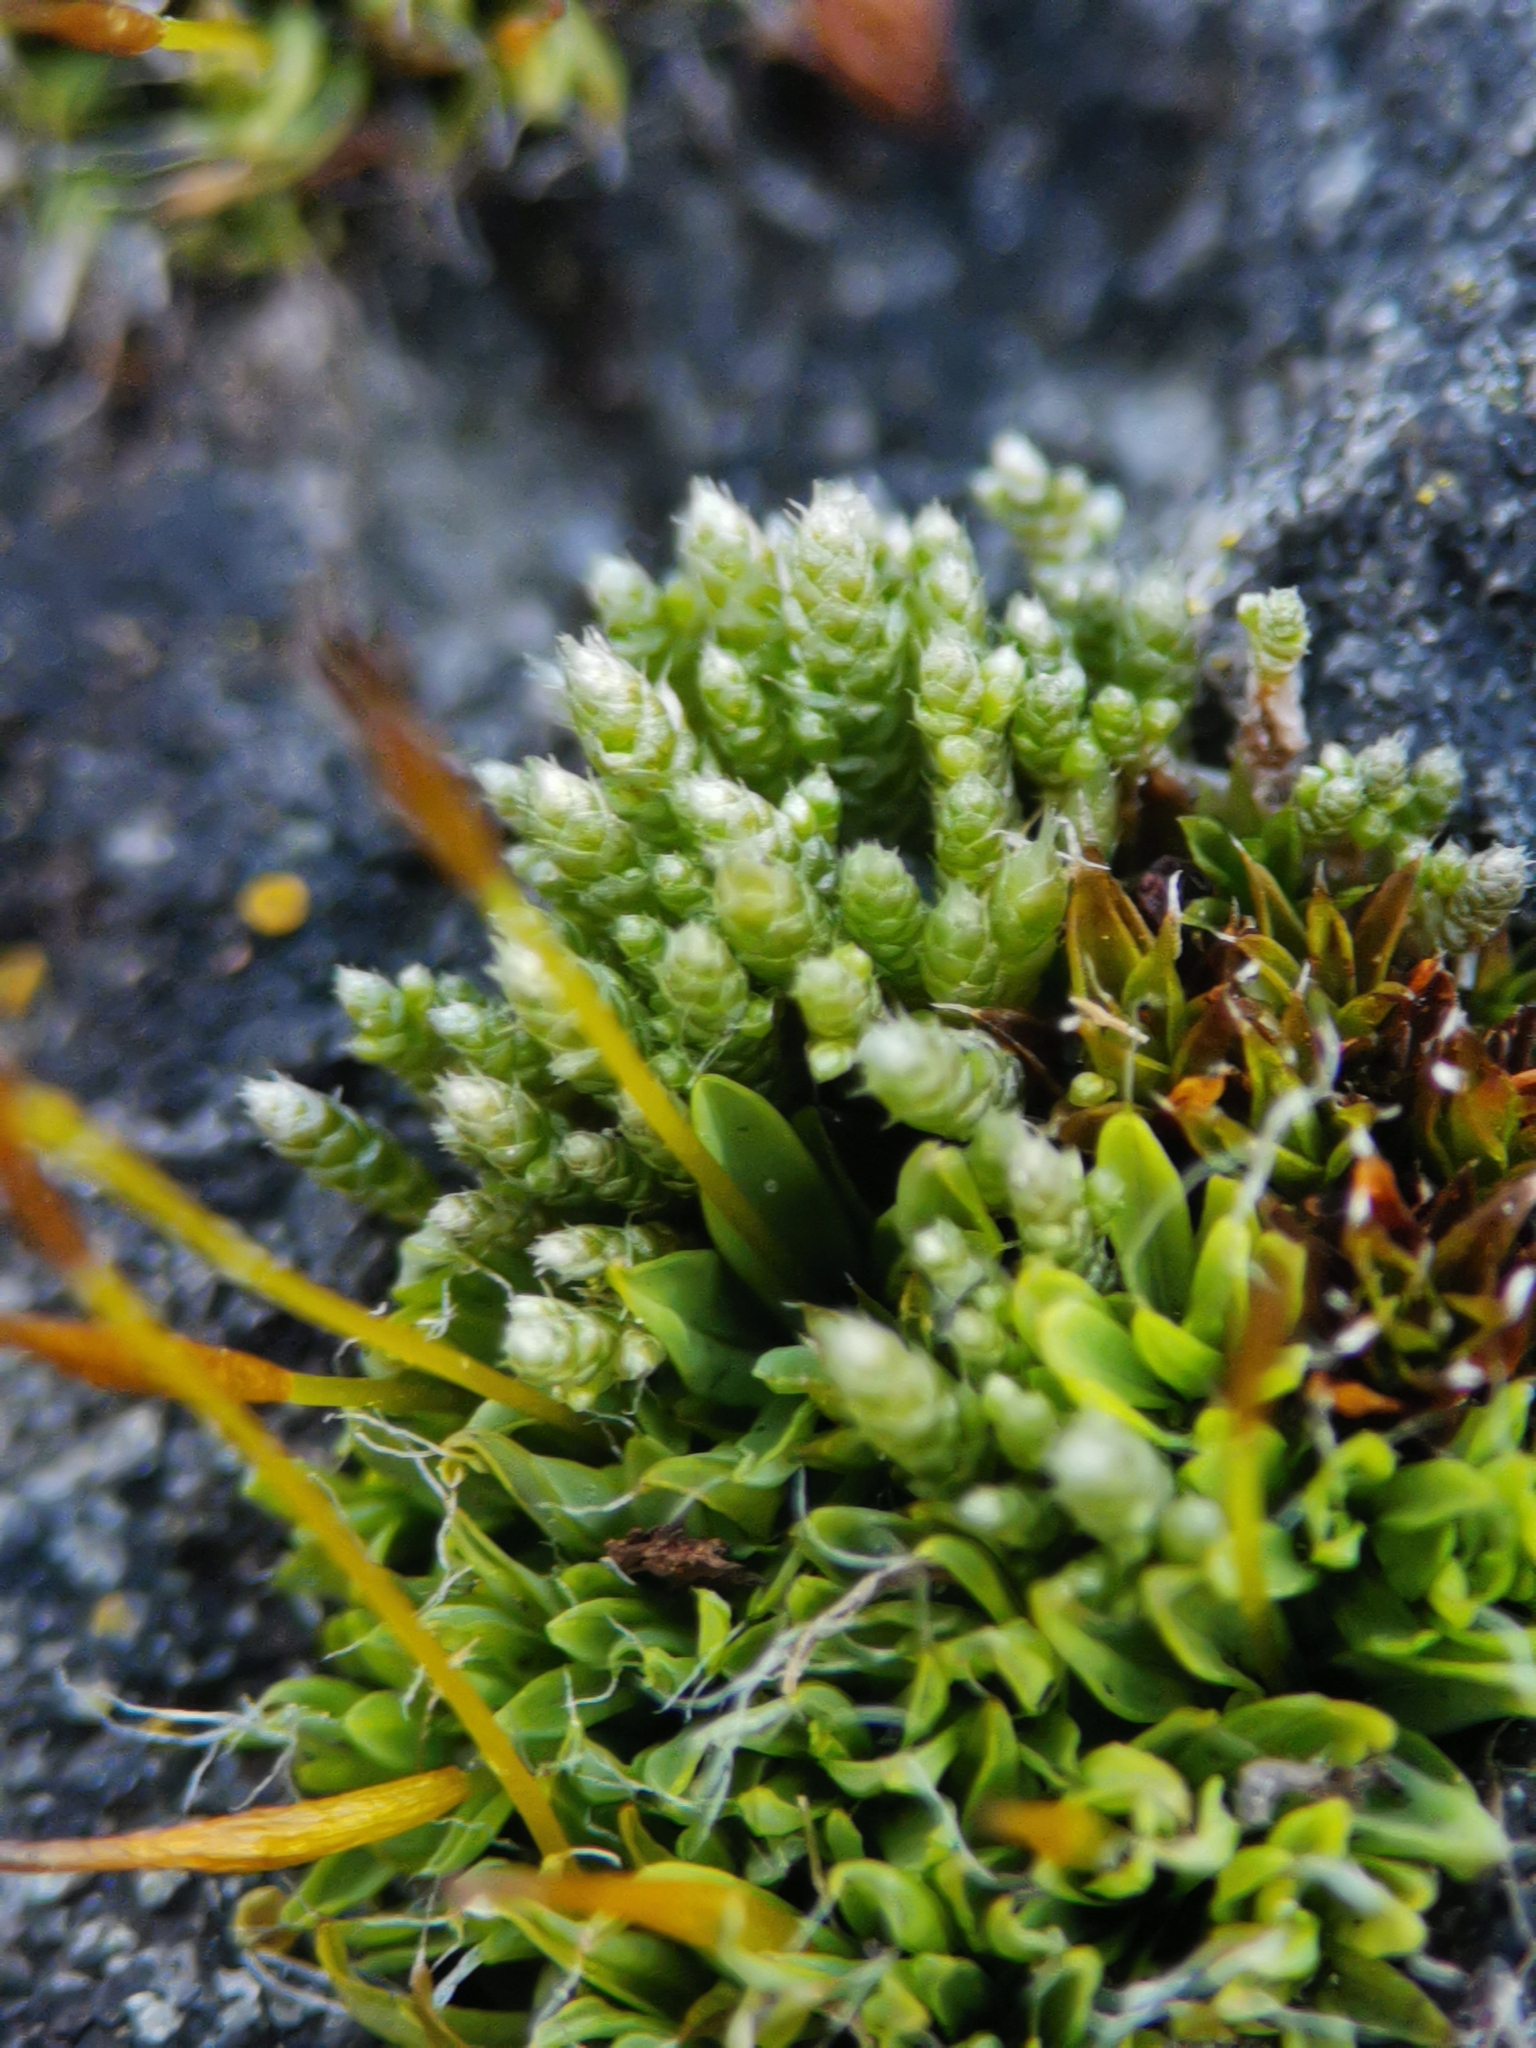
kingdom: Plantae
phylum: Bryophyta
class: Bryopsida
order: Bryales
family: Bryaceae
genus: Bryum
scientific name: Bryum argenteum
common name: Silver-moss
